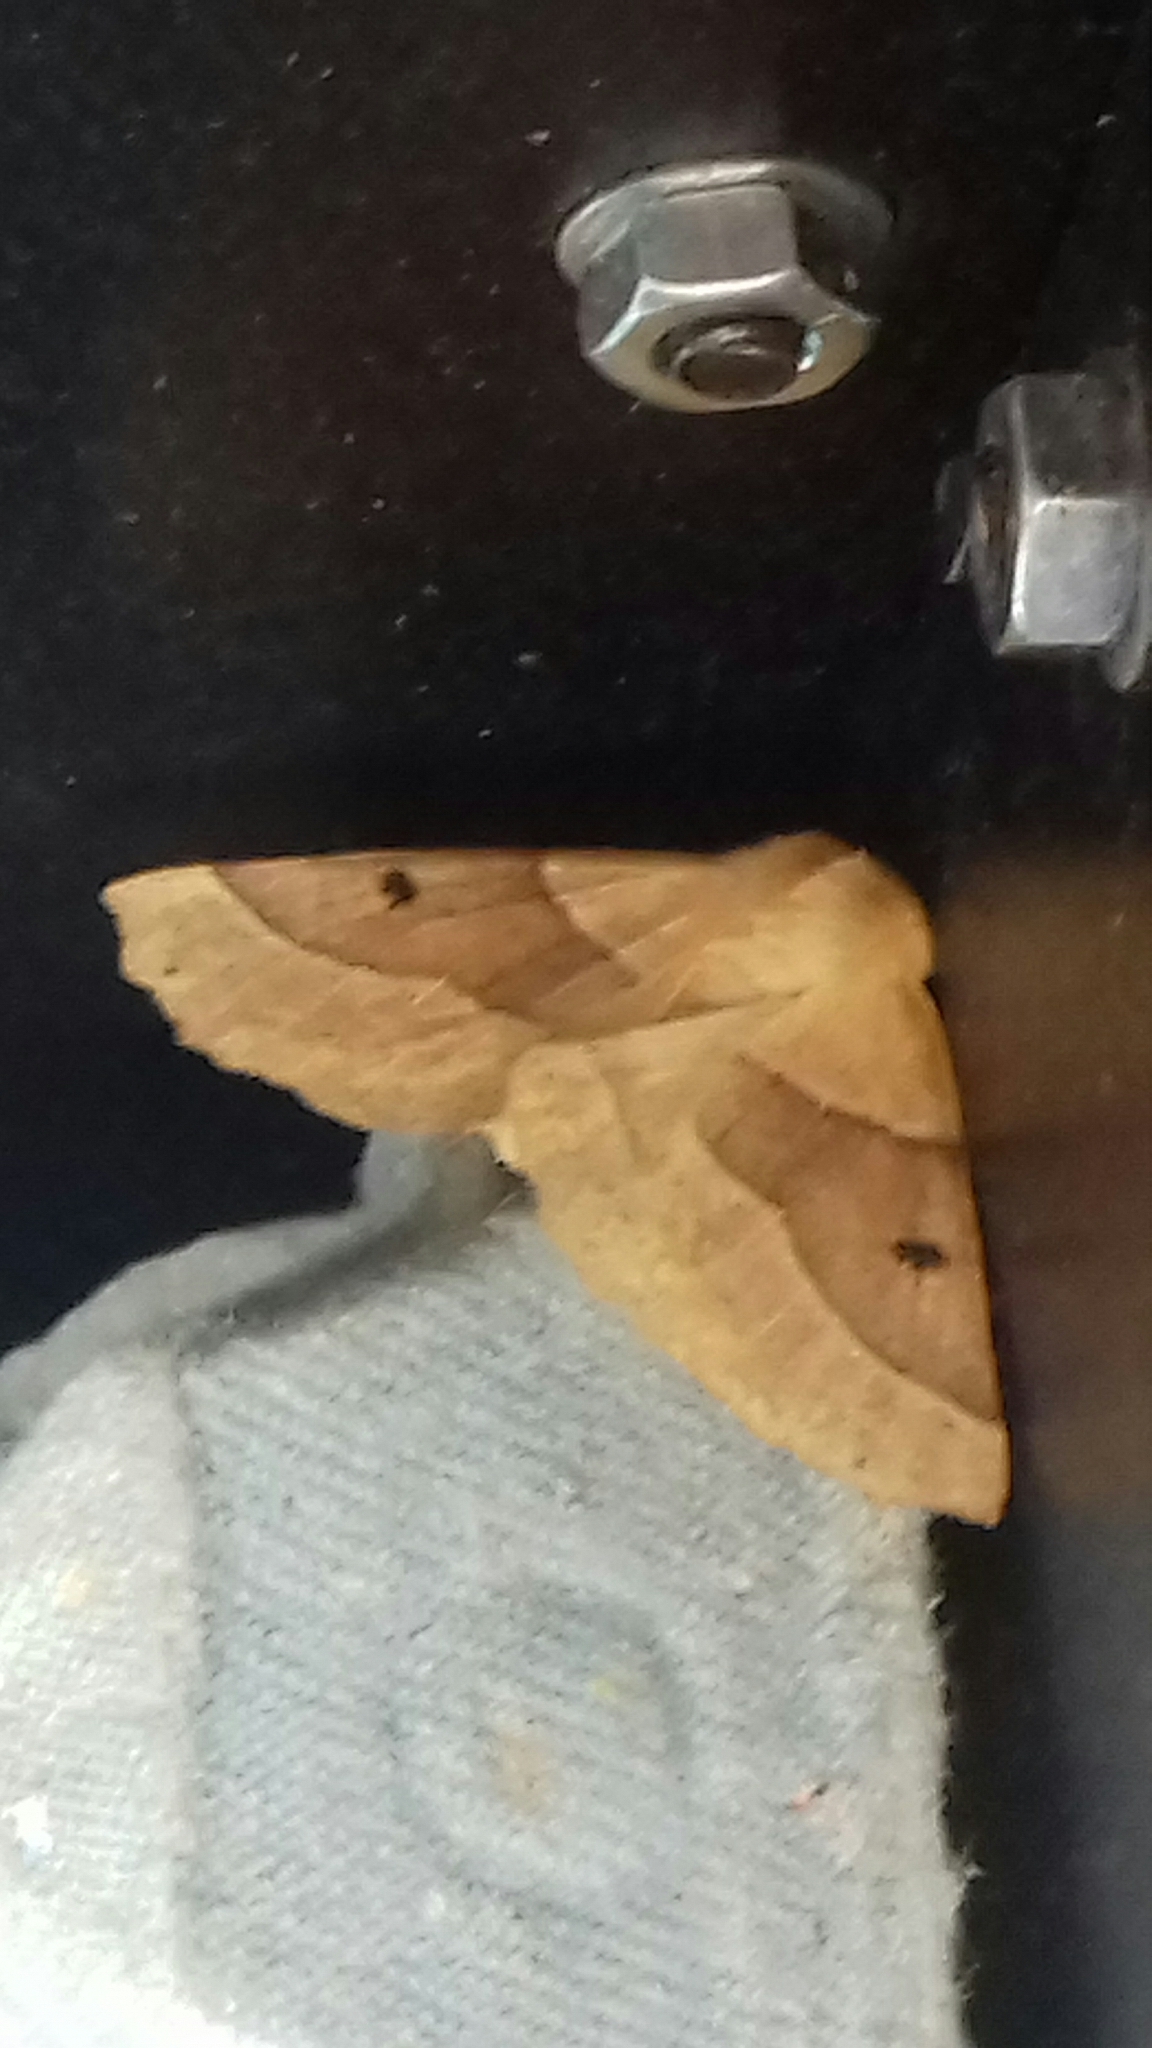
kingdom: Animalia
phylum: Arthropoda
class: Insecta
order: Lepidoptera
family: Geometridae
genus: Crocallis
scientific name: Crocallis elinguaria
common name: Scalloped oak
